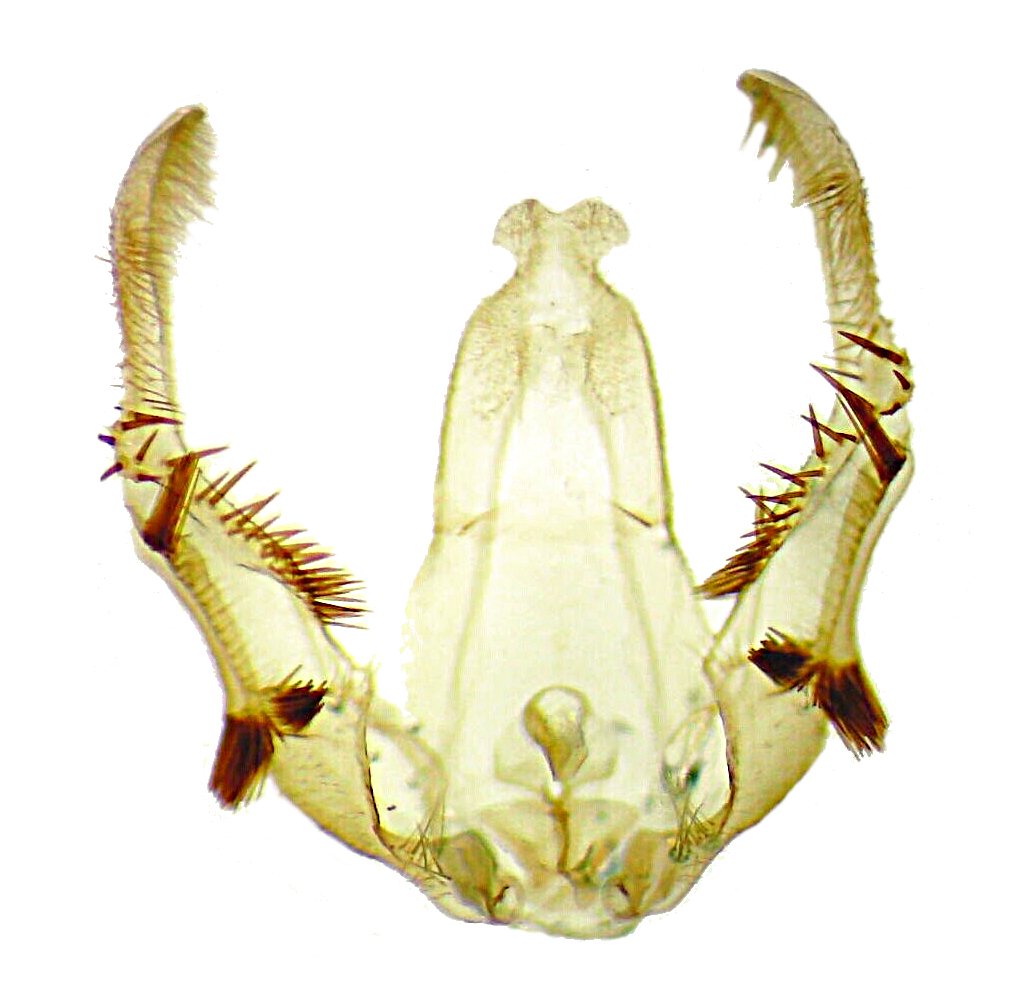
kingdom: Animalia
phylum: Arthropoda
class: Insecta
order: Lepidoptera
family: Tortricidae
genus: Olethreutes
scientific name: Olethreutes fasciatana
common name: Banded olethreutes moth
